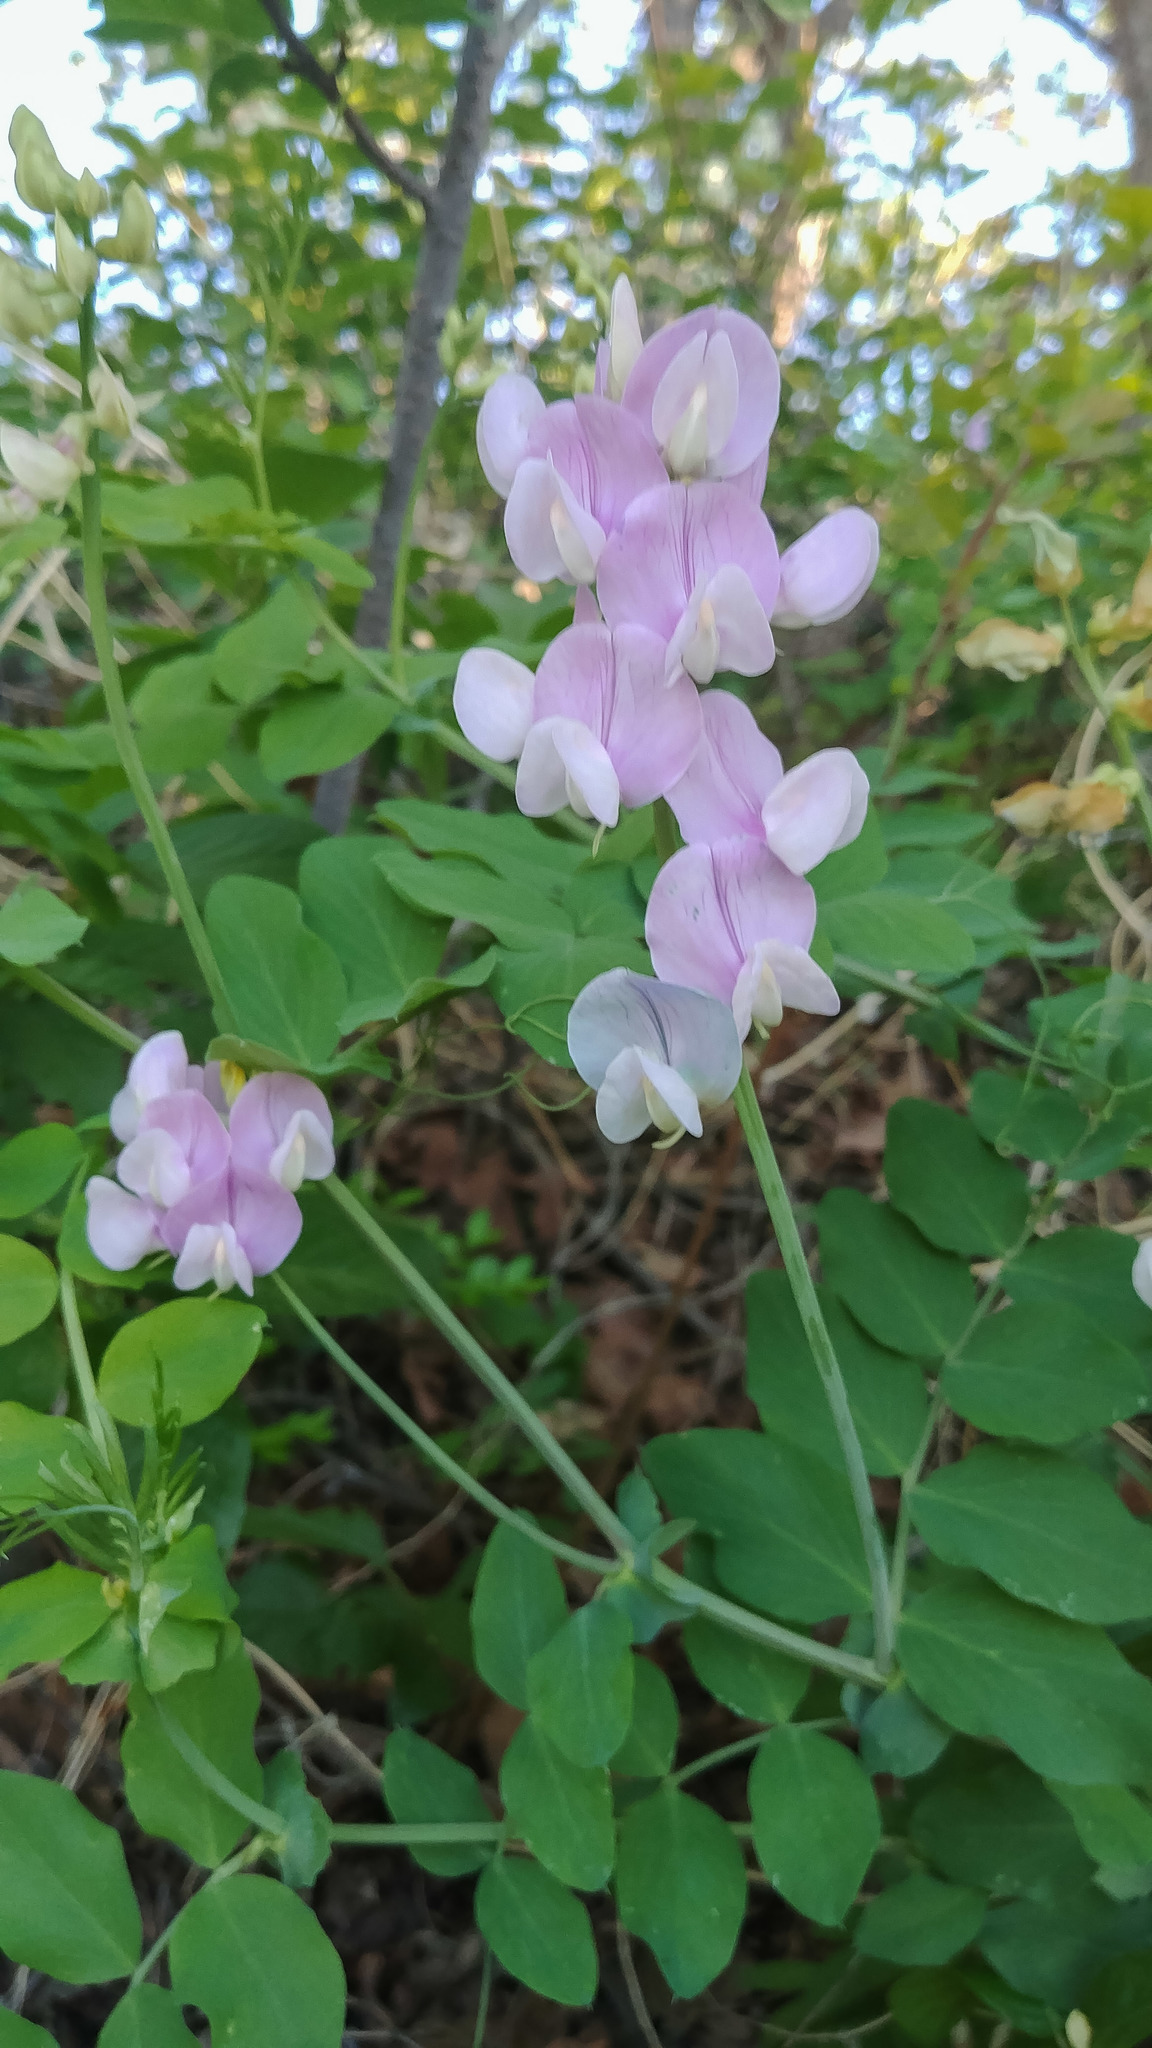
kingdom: Plantae
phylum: Tracheophyta
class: Magnoliopsida
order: Fabales
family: Fabaceae
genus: Lathyrus
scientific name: Lathyrus pauciflorus
